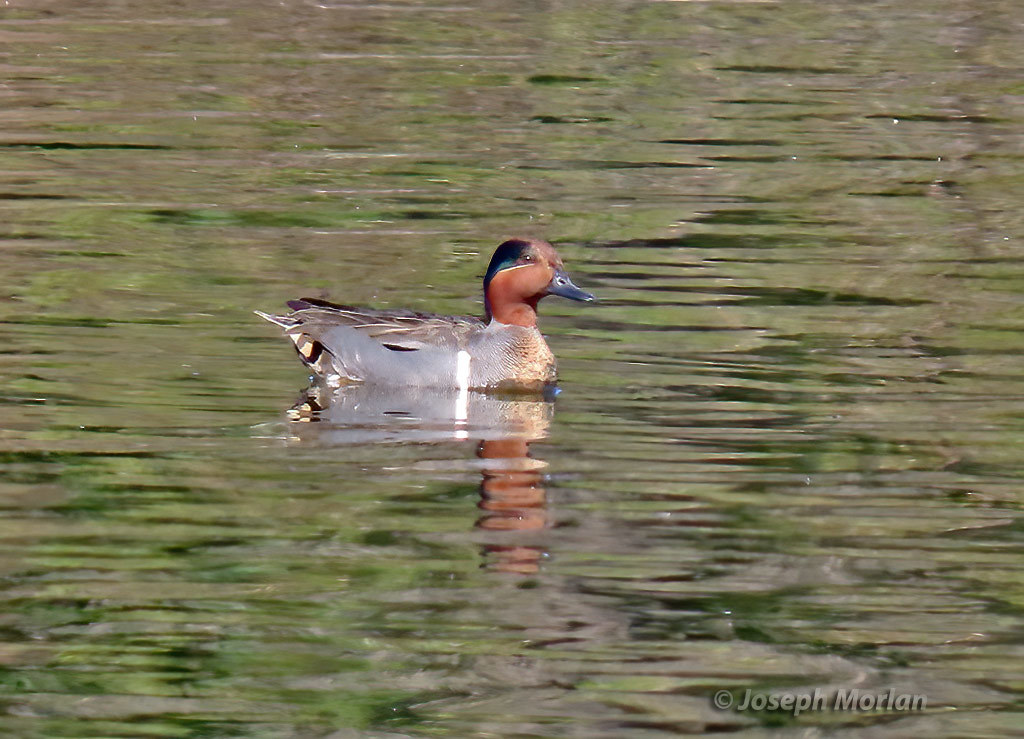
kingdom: Animalia
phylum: Chordata
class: Aves
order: Anseriformes
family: Anatidae
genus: Anas
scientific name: Anas crecca
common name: Eurasian teal
